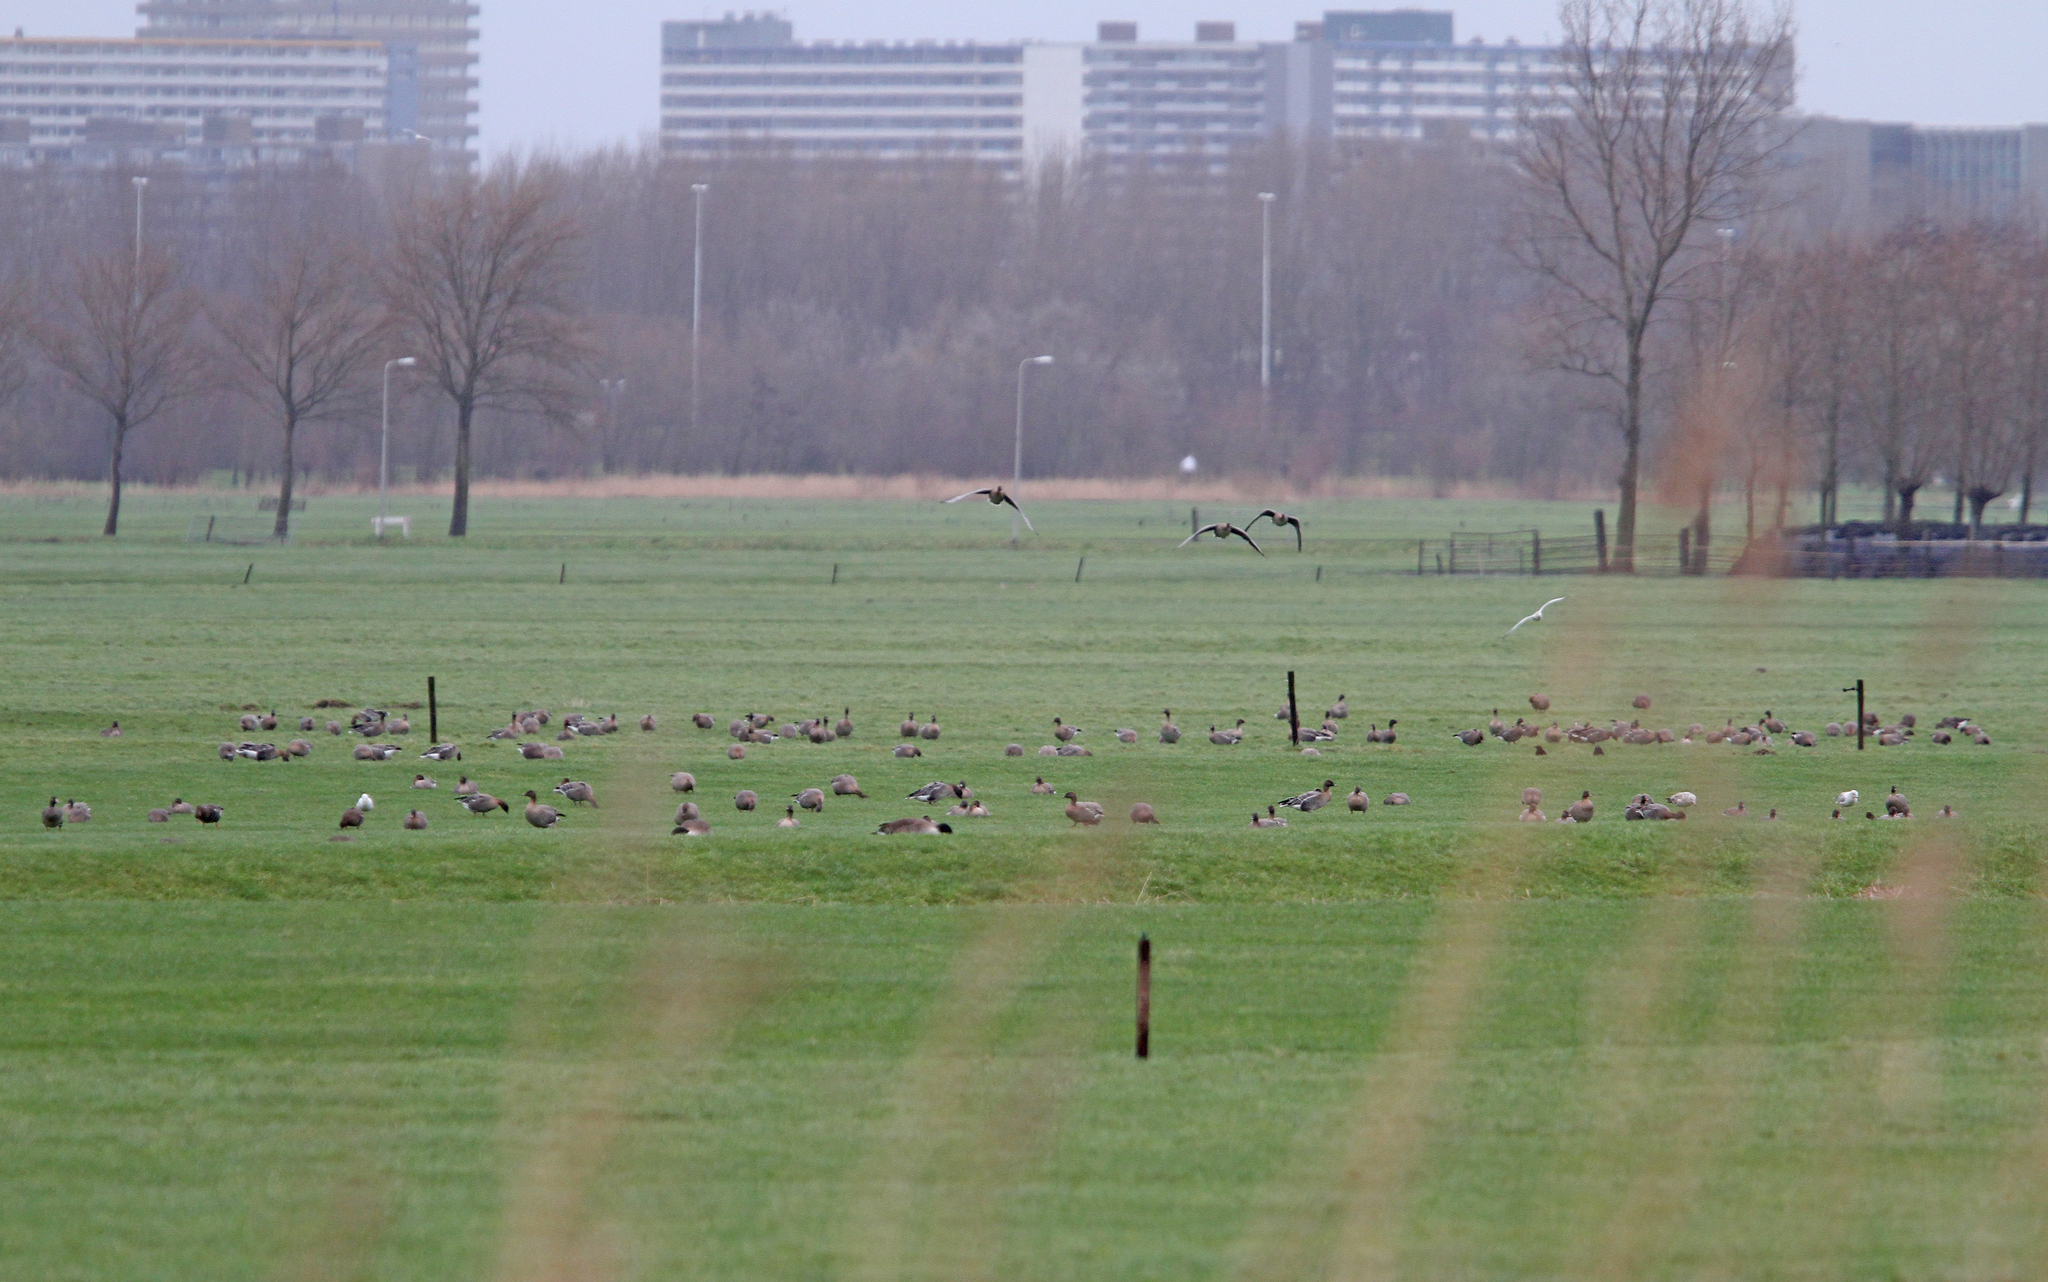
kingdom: Animalia
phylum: Chordata
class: Aves
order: Anseriformes
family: Anatidae
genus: Anser
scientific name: Anser brachyrhynchus
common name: Pink-footed goose
